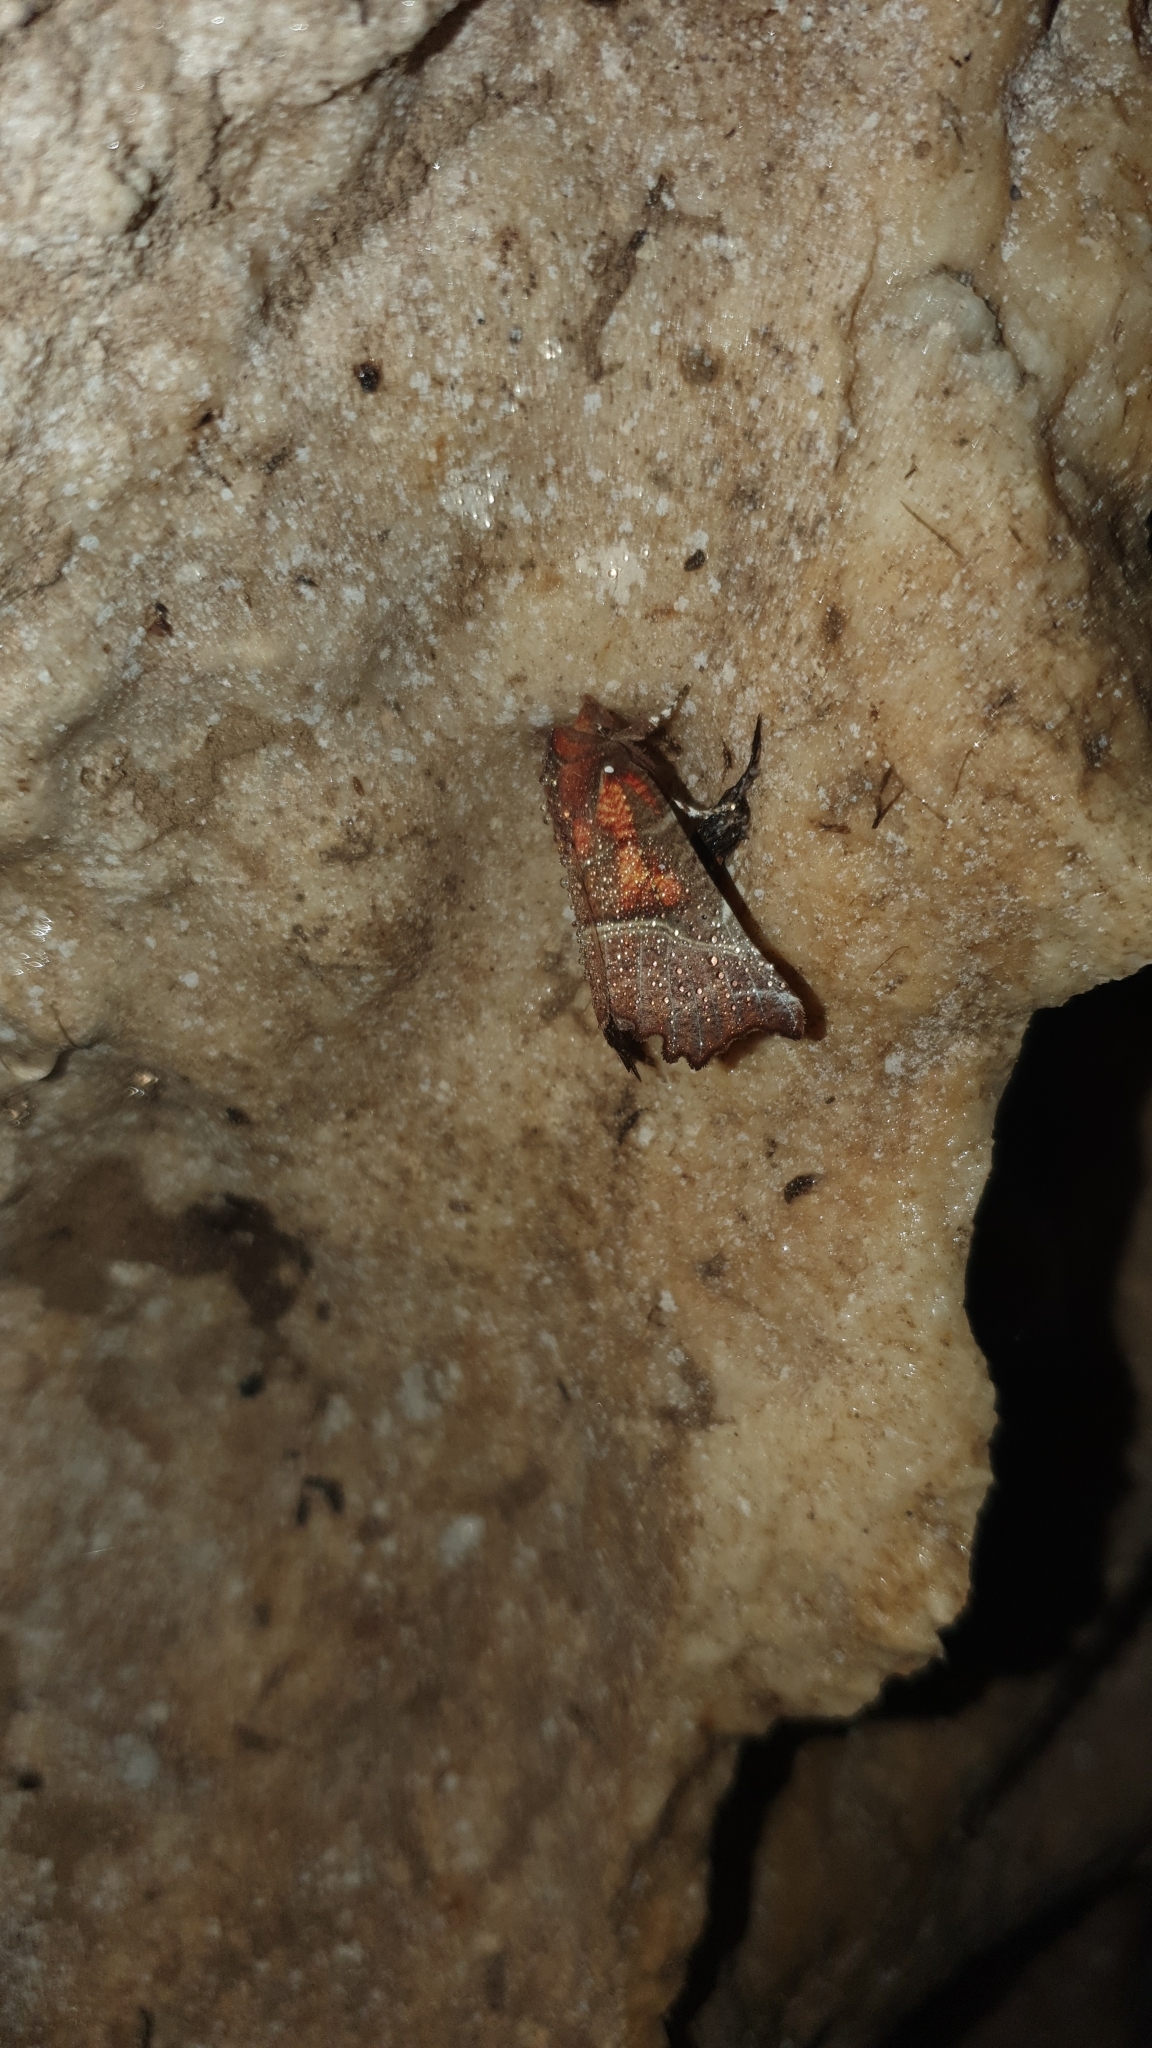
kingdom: Animalia
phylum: Arthropoda
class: Insecta
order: Lepidoptera
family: Erebidae
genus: Scoliopteryx
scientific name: Scoliopteryx libatrix
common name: Herald
